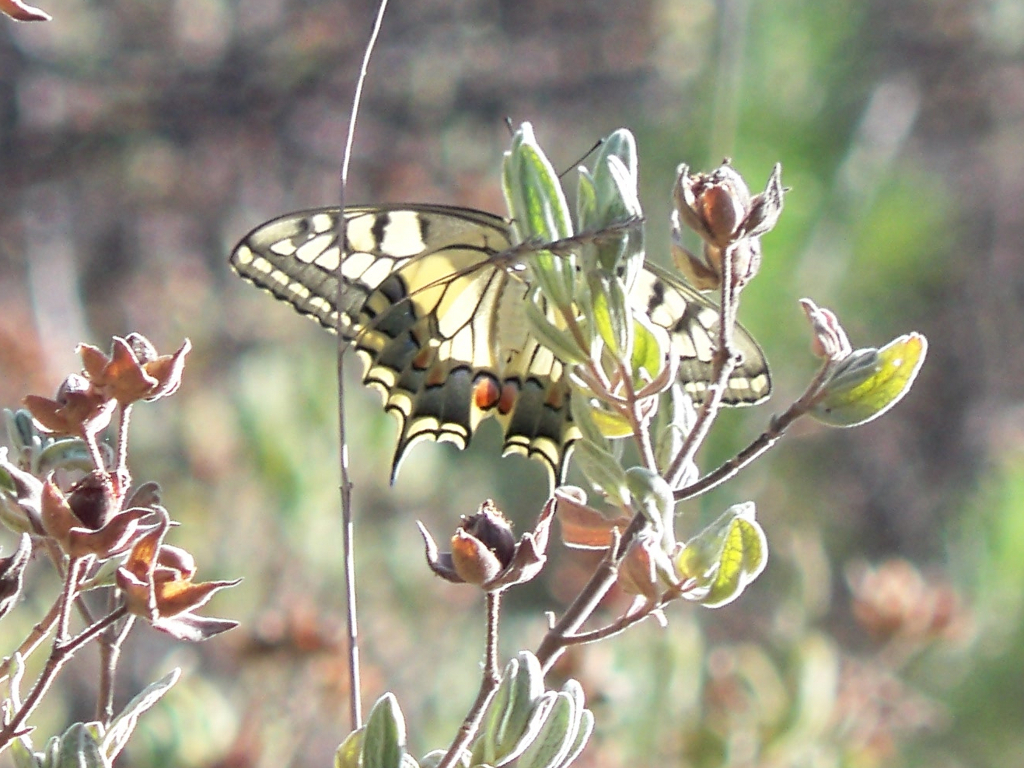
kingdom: Animalia
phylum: Arthropoda
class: Insecta
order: Lepidoptera
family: Papilionidae
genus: Papilio
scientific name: Papilio machaon
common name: Swallowtail
